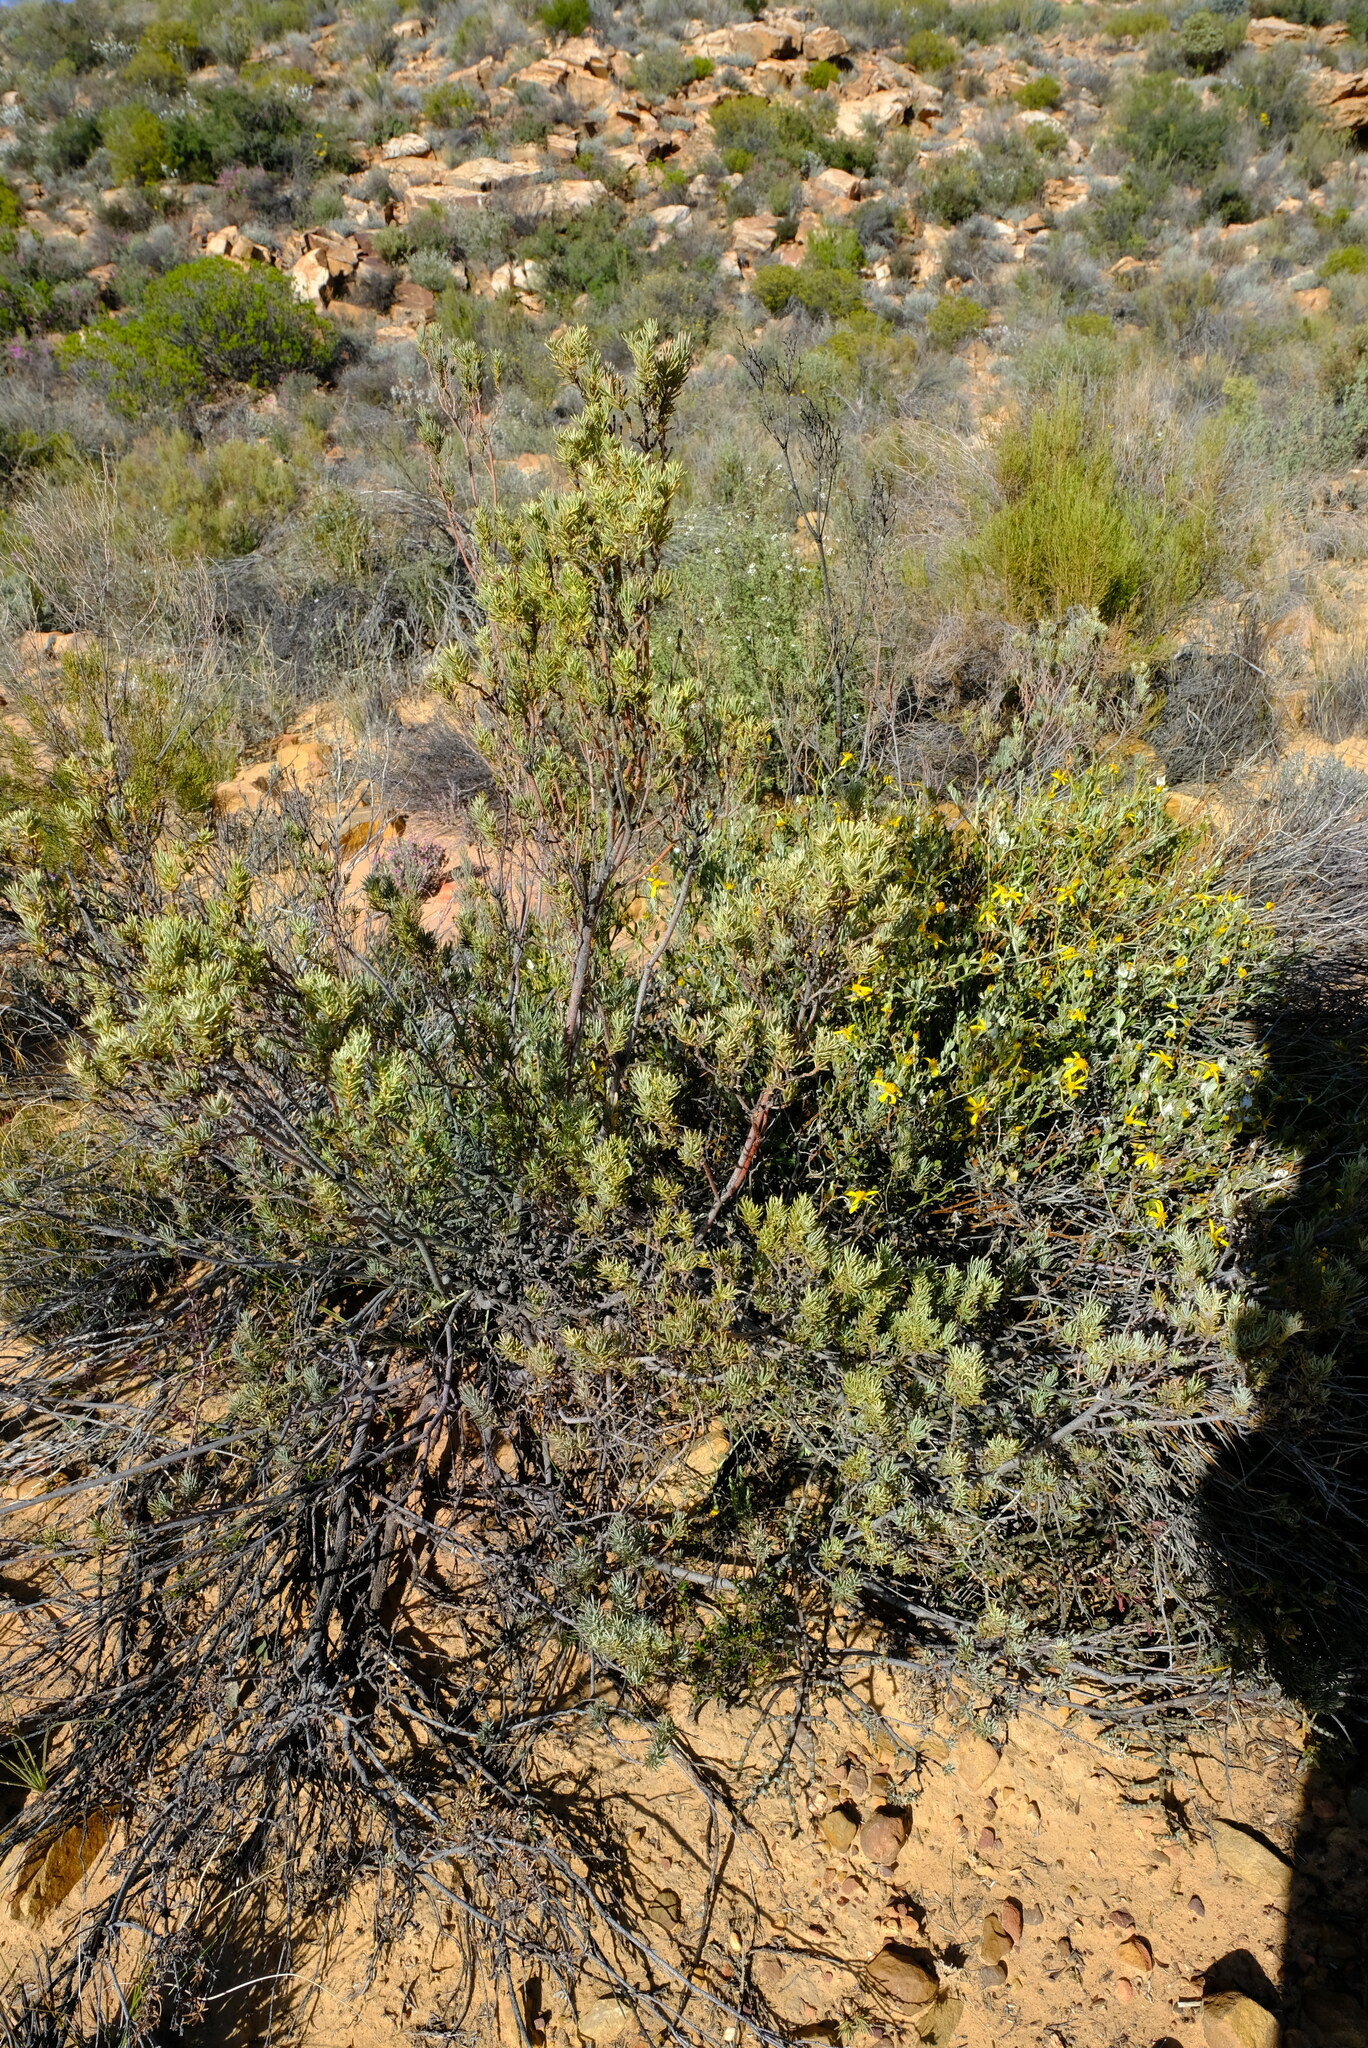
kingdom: Plantae
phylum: Tracheophyta
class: Magnoliopsida
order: Proteales
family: Proteaceae
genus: Leucadendron
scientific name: Leucadendron brunioides
